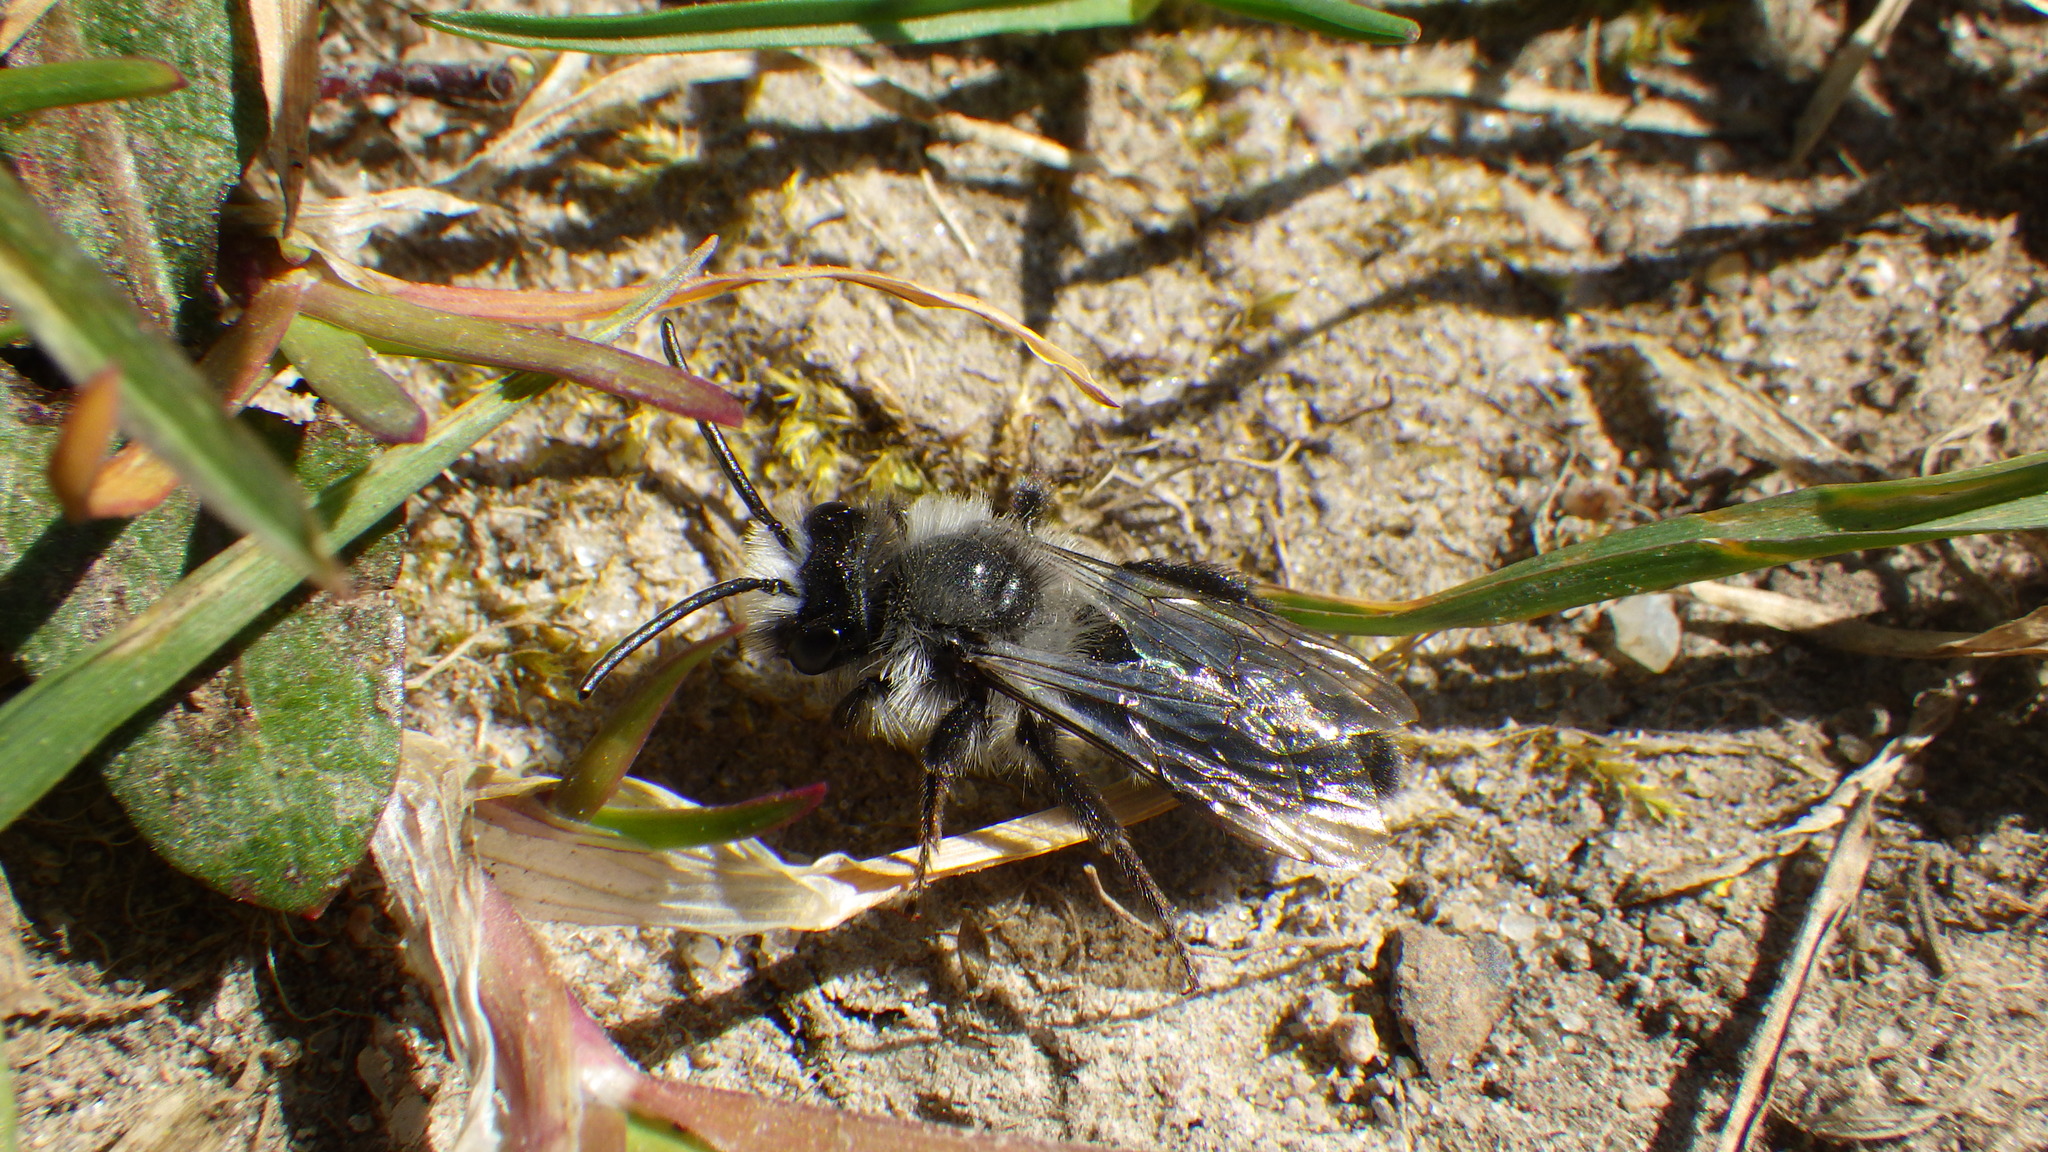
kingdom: Animalia
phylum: Arthropoda
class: Insecta
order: Hymenoptera
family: Andrenidae
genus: Andrena
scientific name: Andrena cineraria
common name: Ashy mining bee
